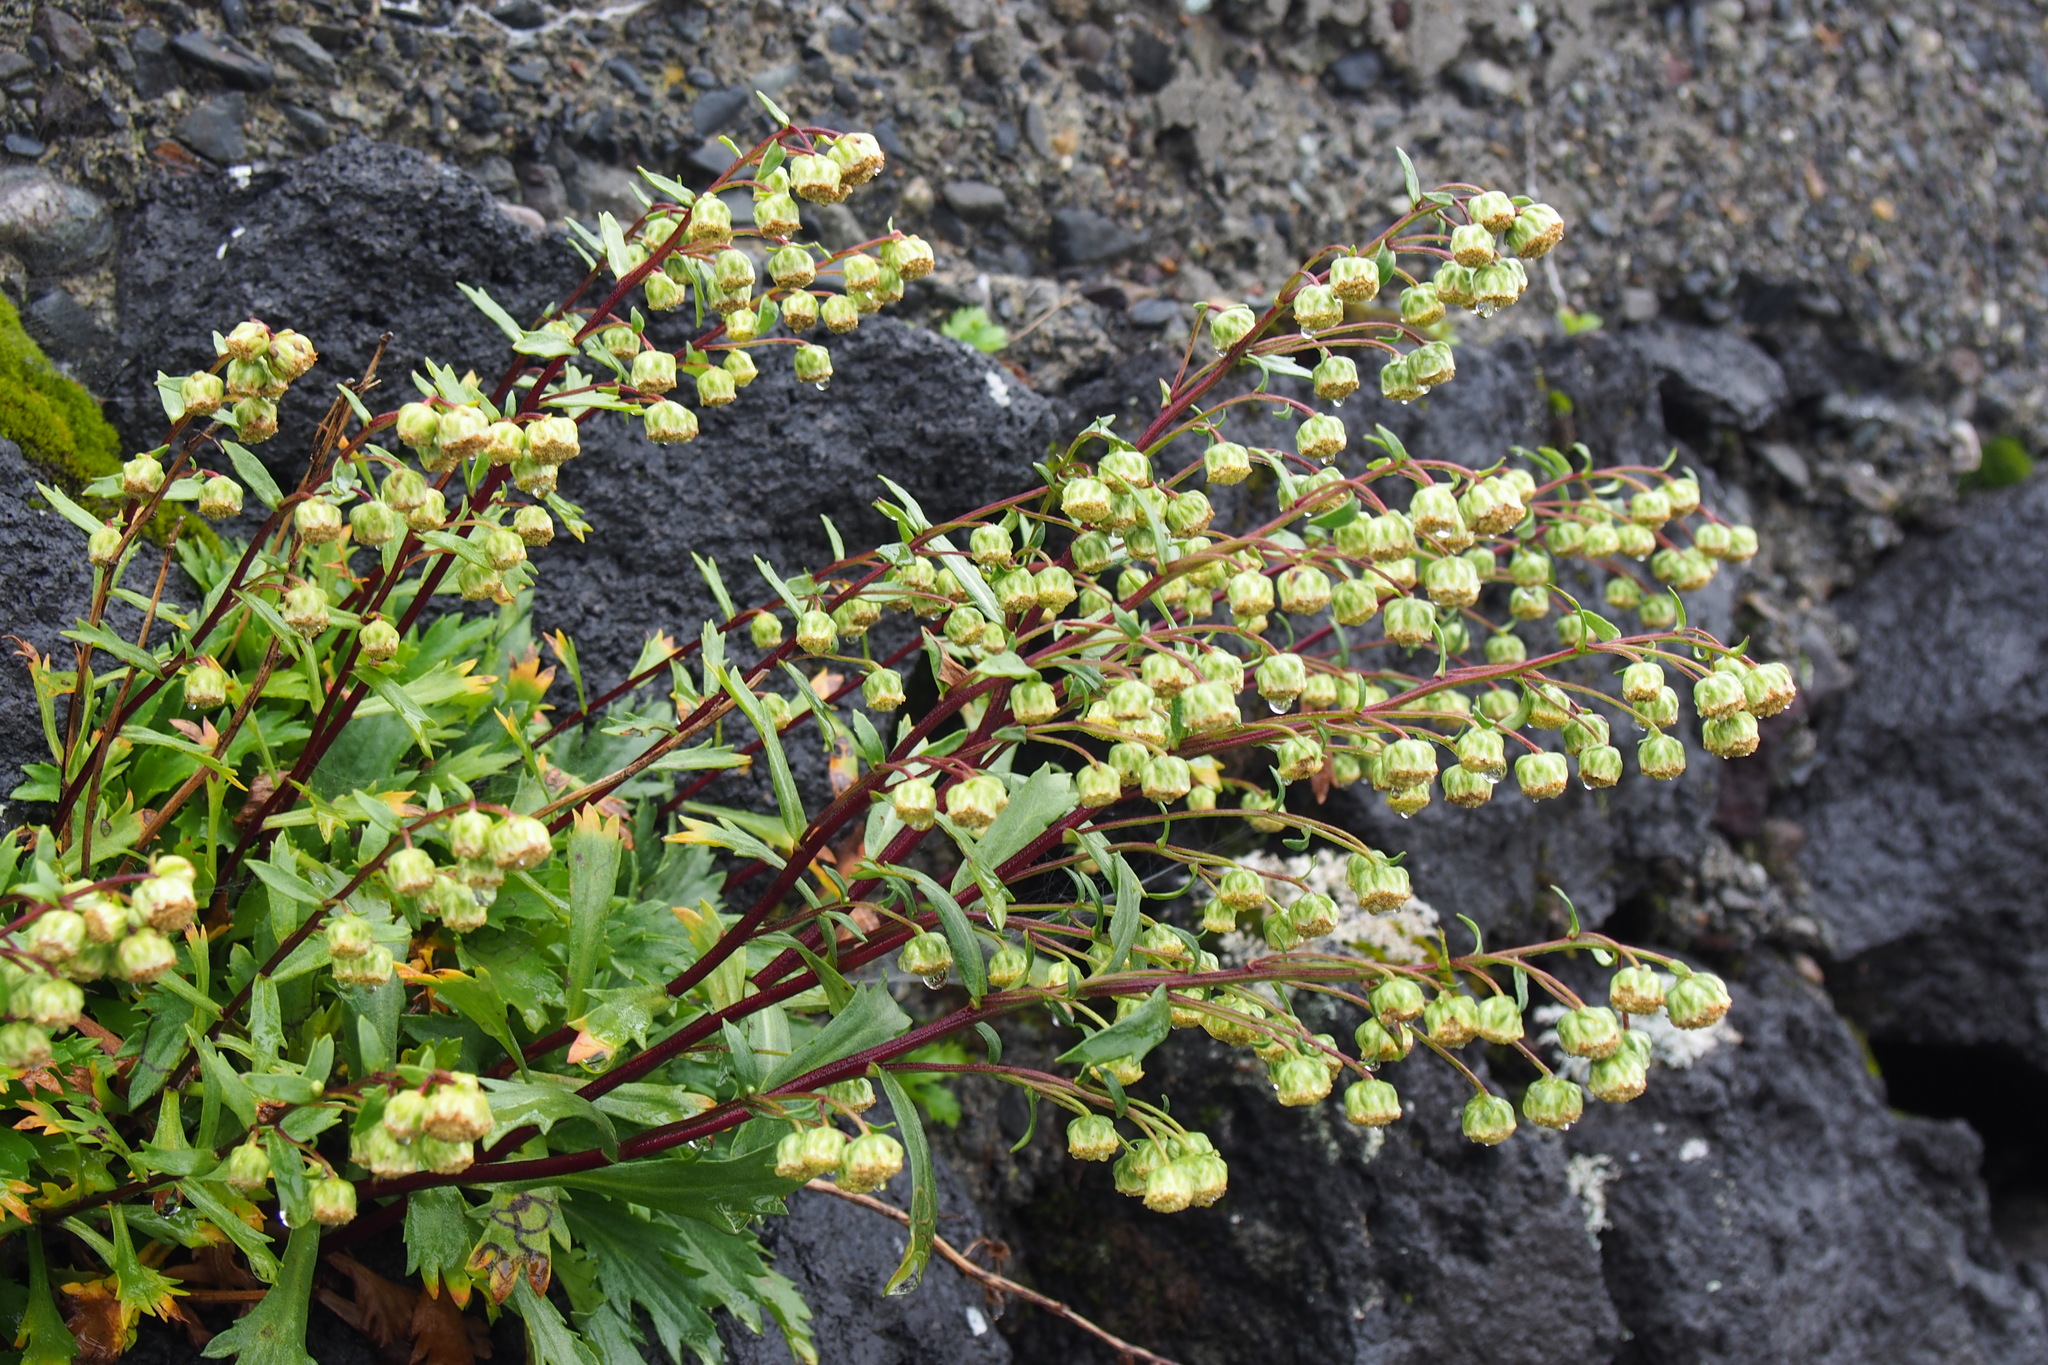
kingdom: Plantae
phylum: Tracheophyta
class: Magnoliopsida
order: Asterales
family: Asteraceae
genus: Artemisia
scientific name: Artemisia pedunculosa
